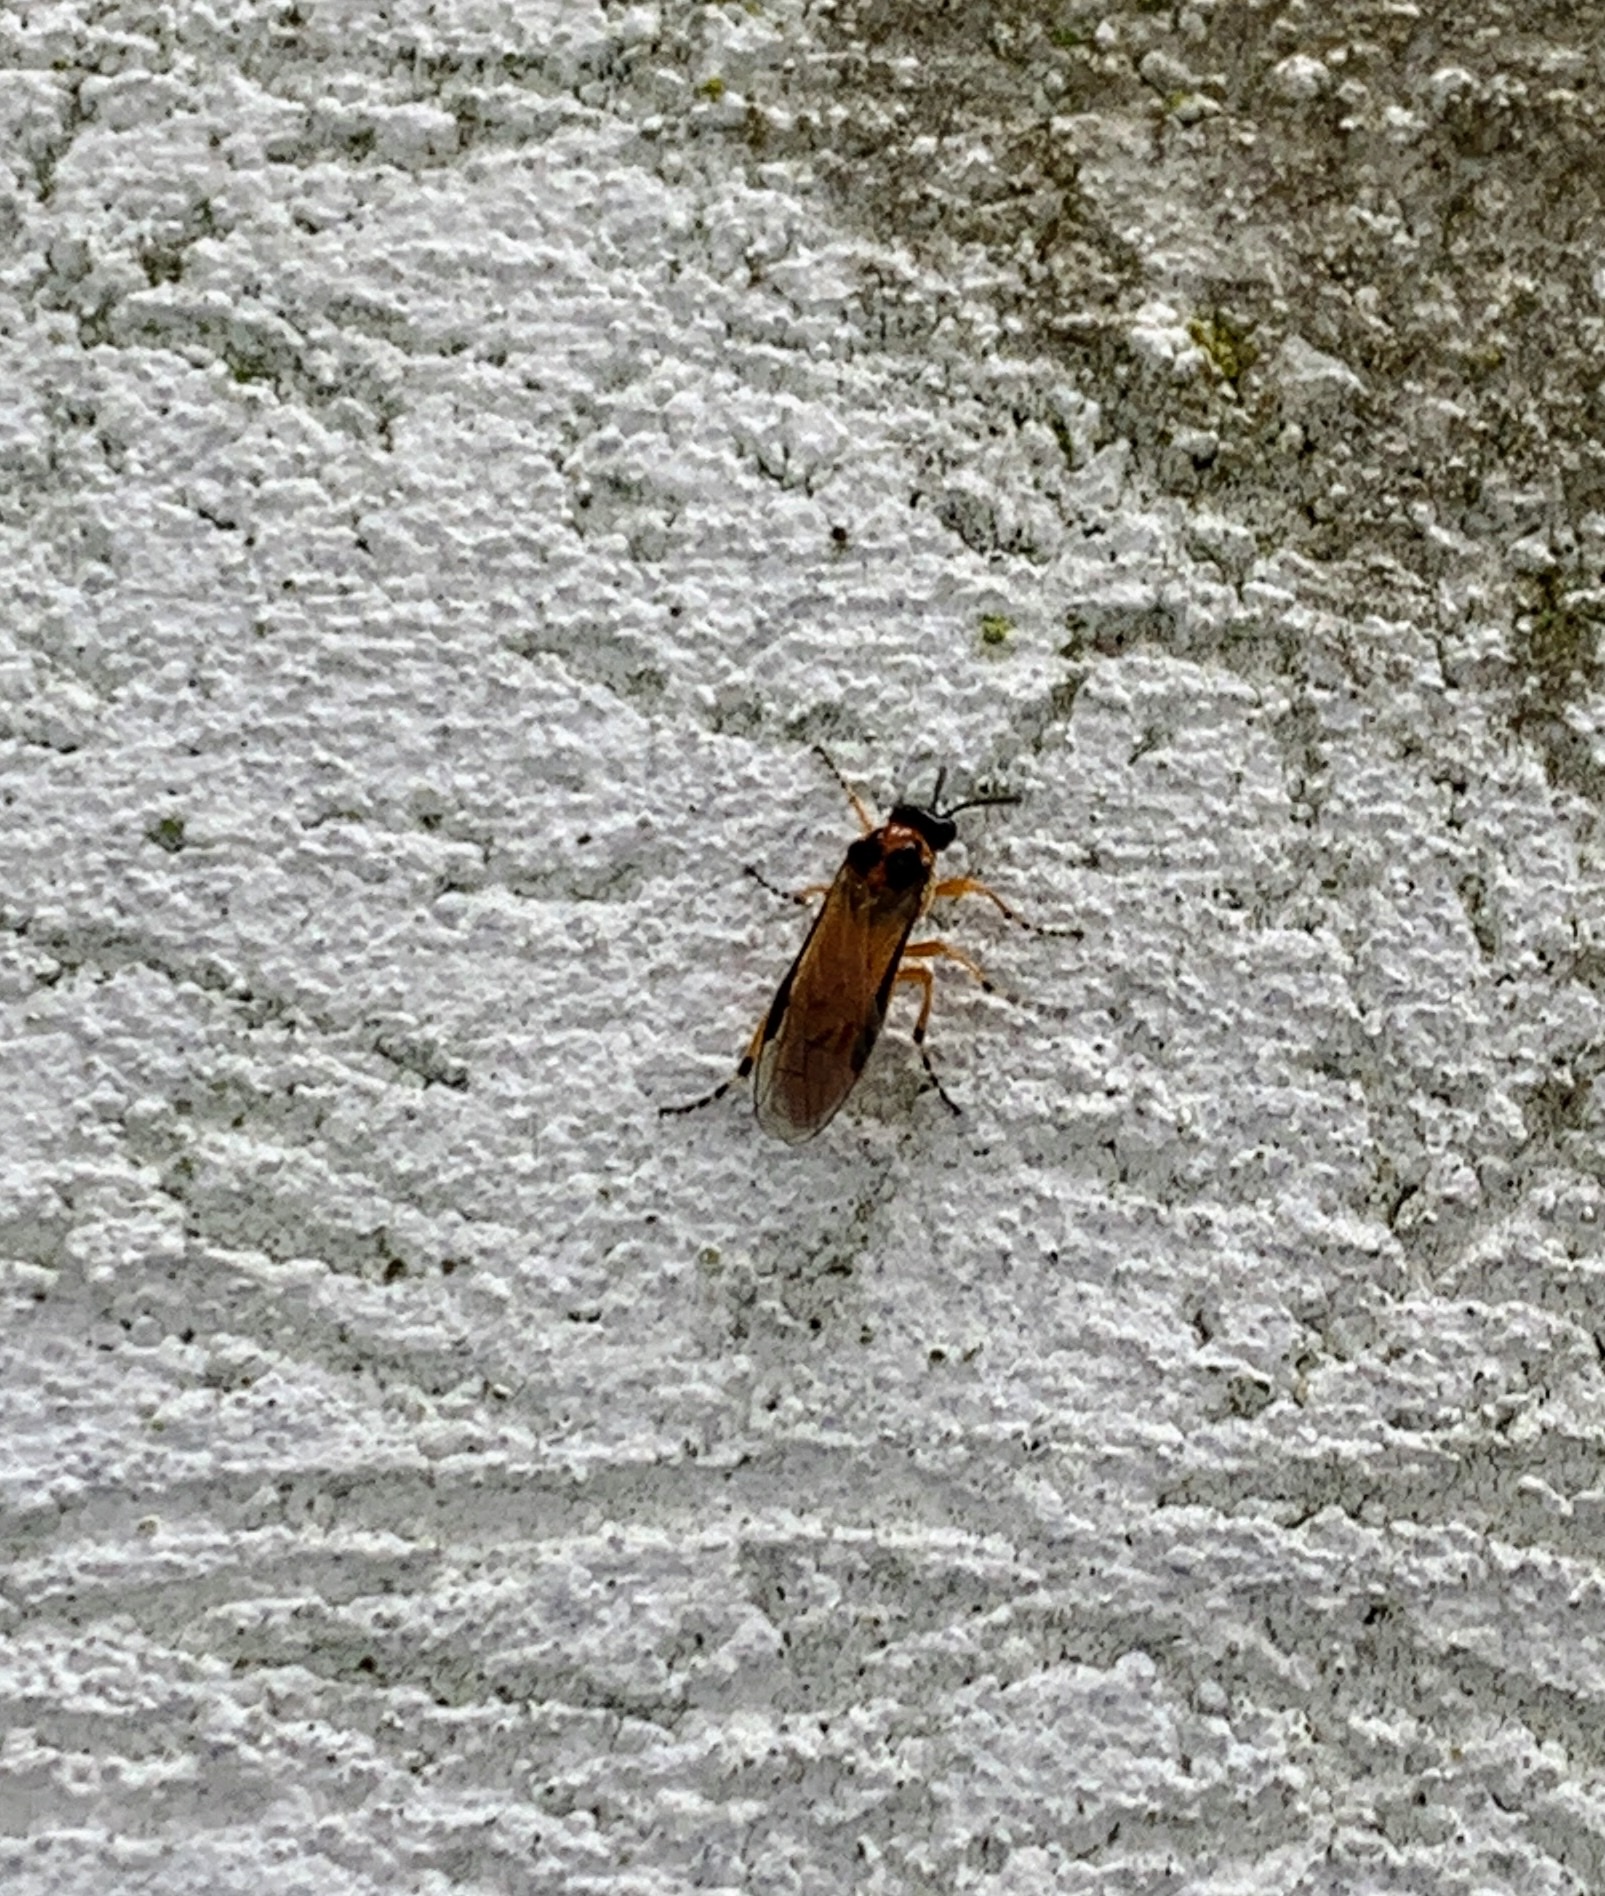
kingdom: Animalia
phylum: Arthropoda
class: Insecta
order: Hymenoptera
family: Tenthredinidae
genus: Athalia
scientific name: Athalia rosae
